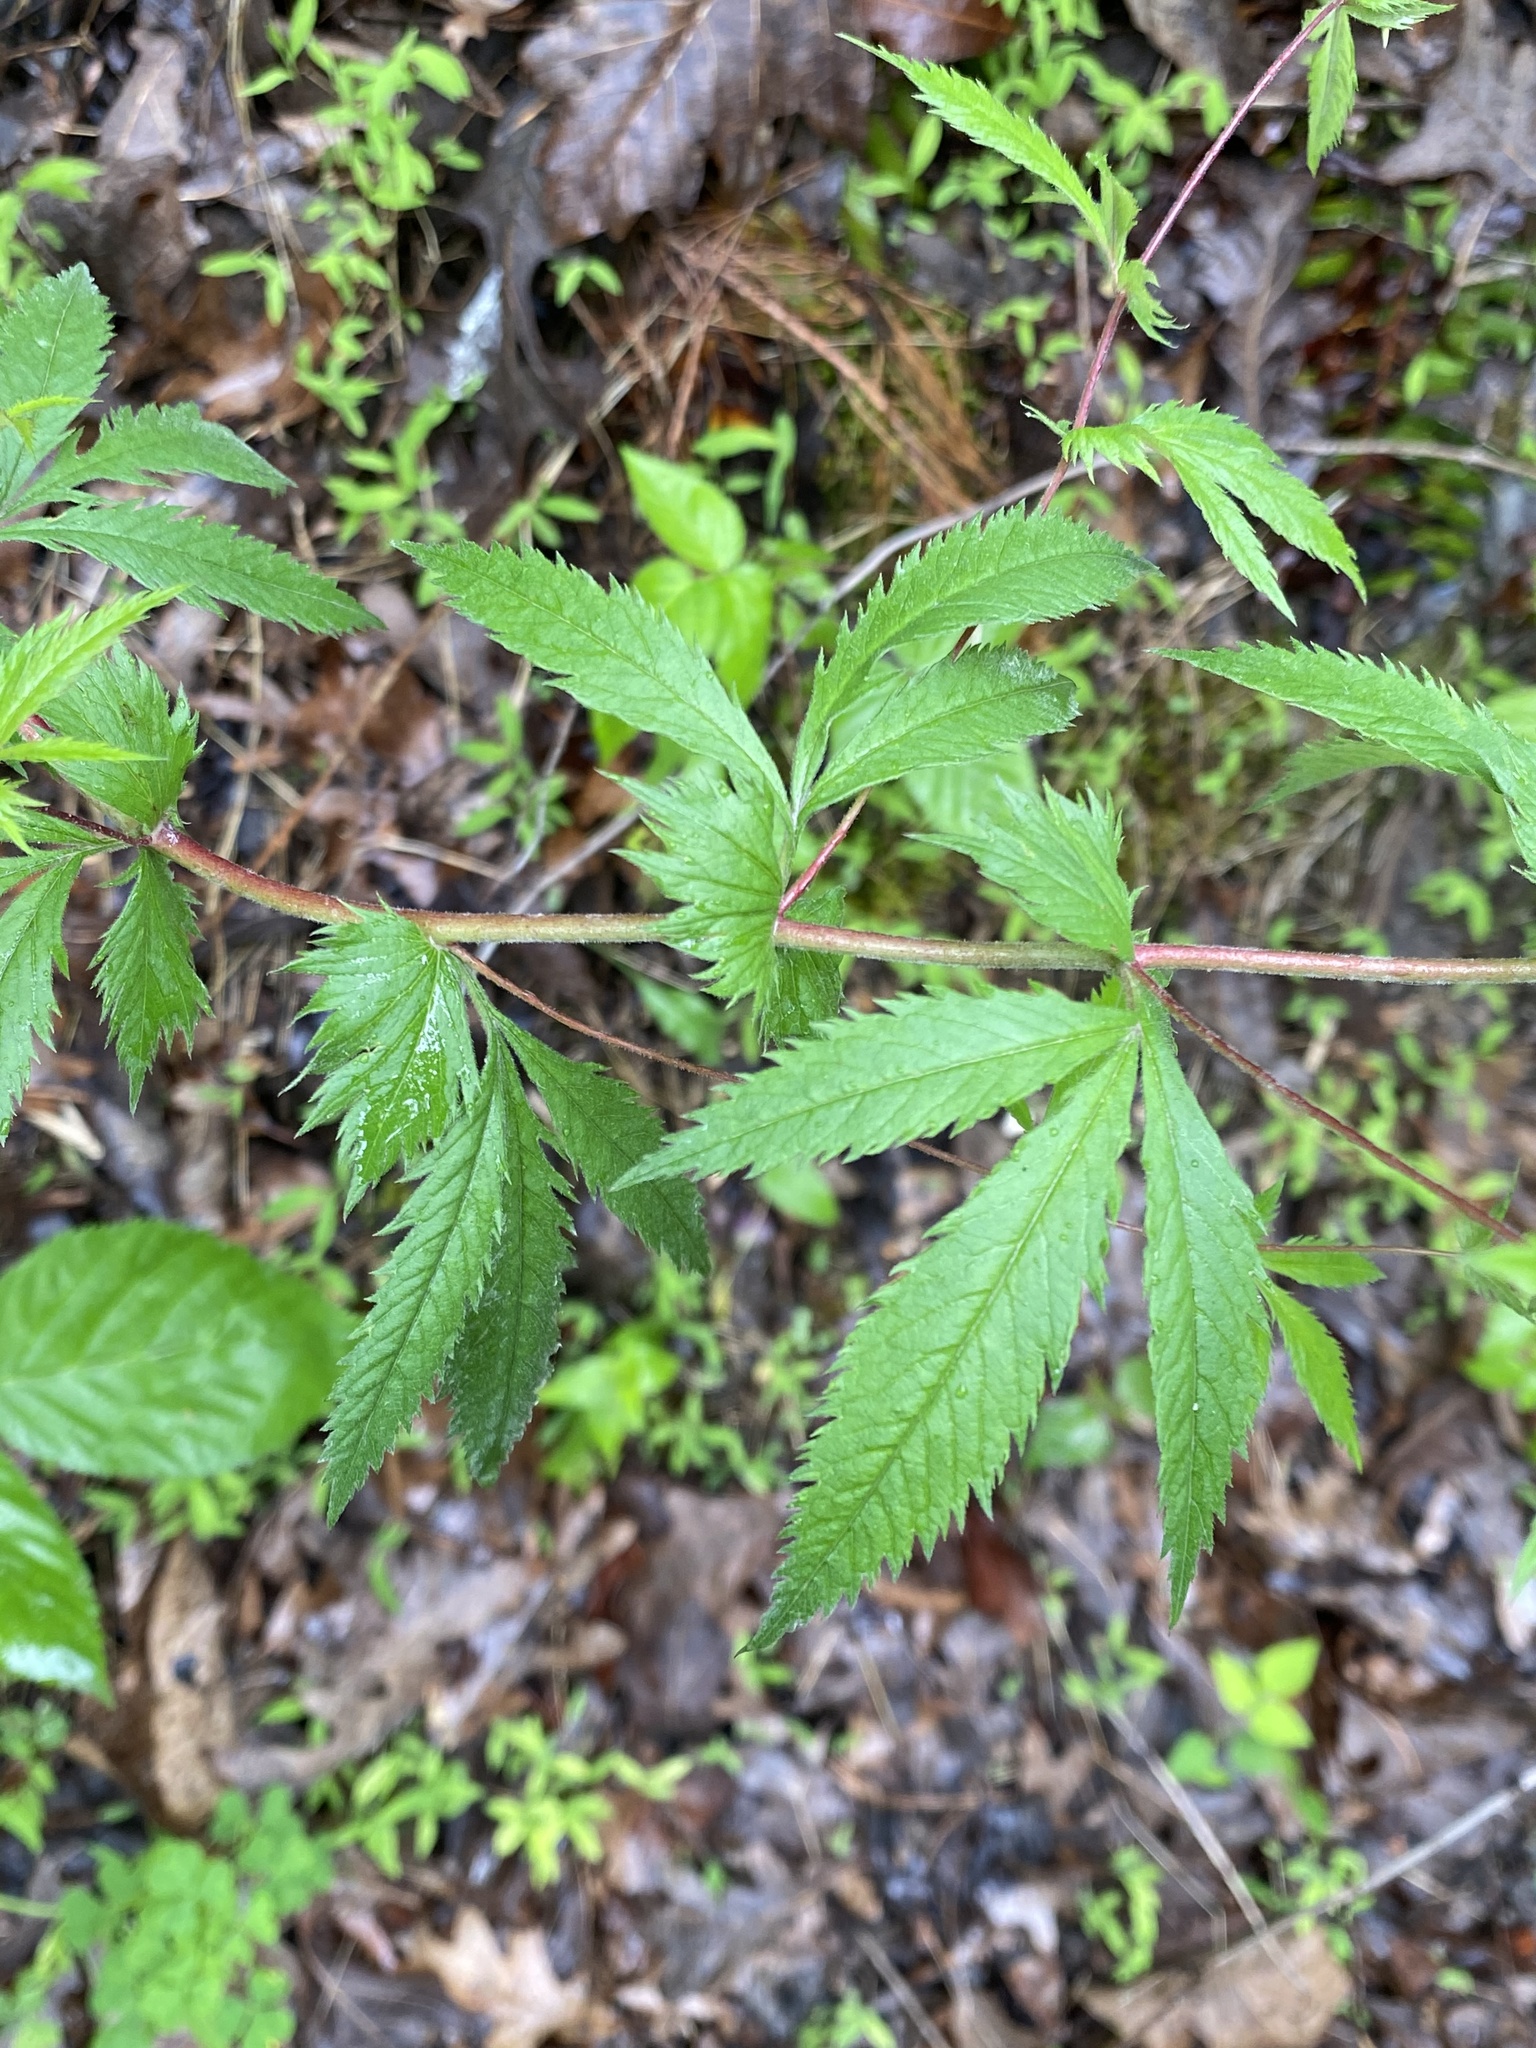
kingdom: Plantae
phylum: Tracheophyta
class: Magnoliopsida
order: Rosales
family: Rosaceae
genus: Gillenia
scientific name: Gillenia stipulata
